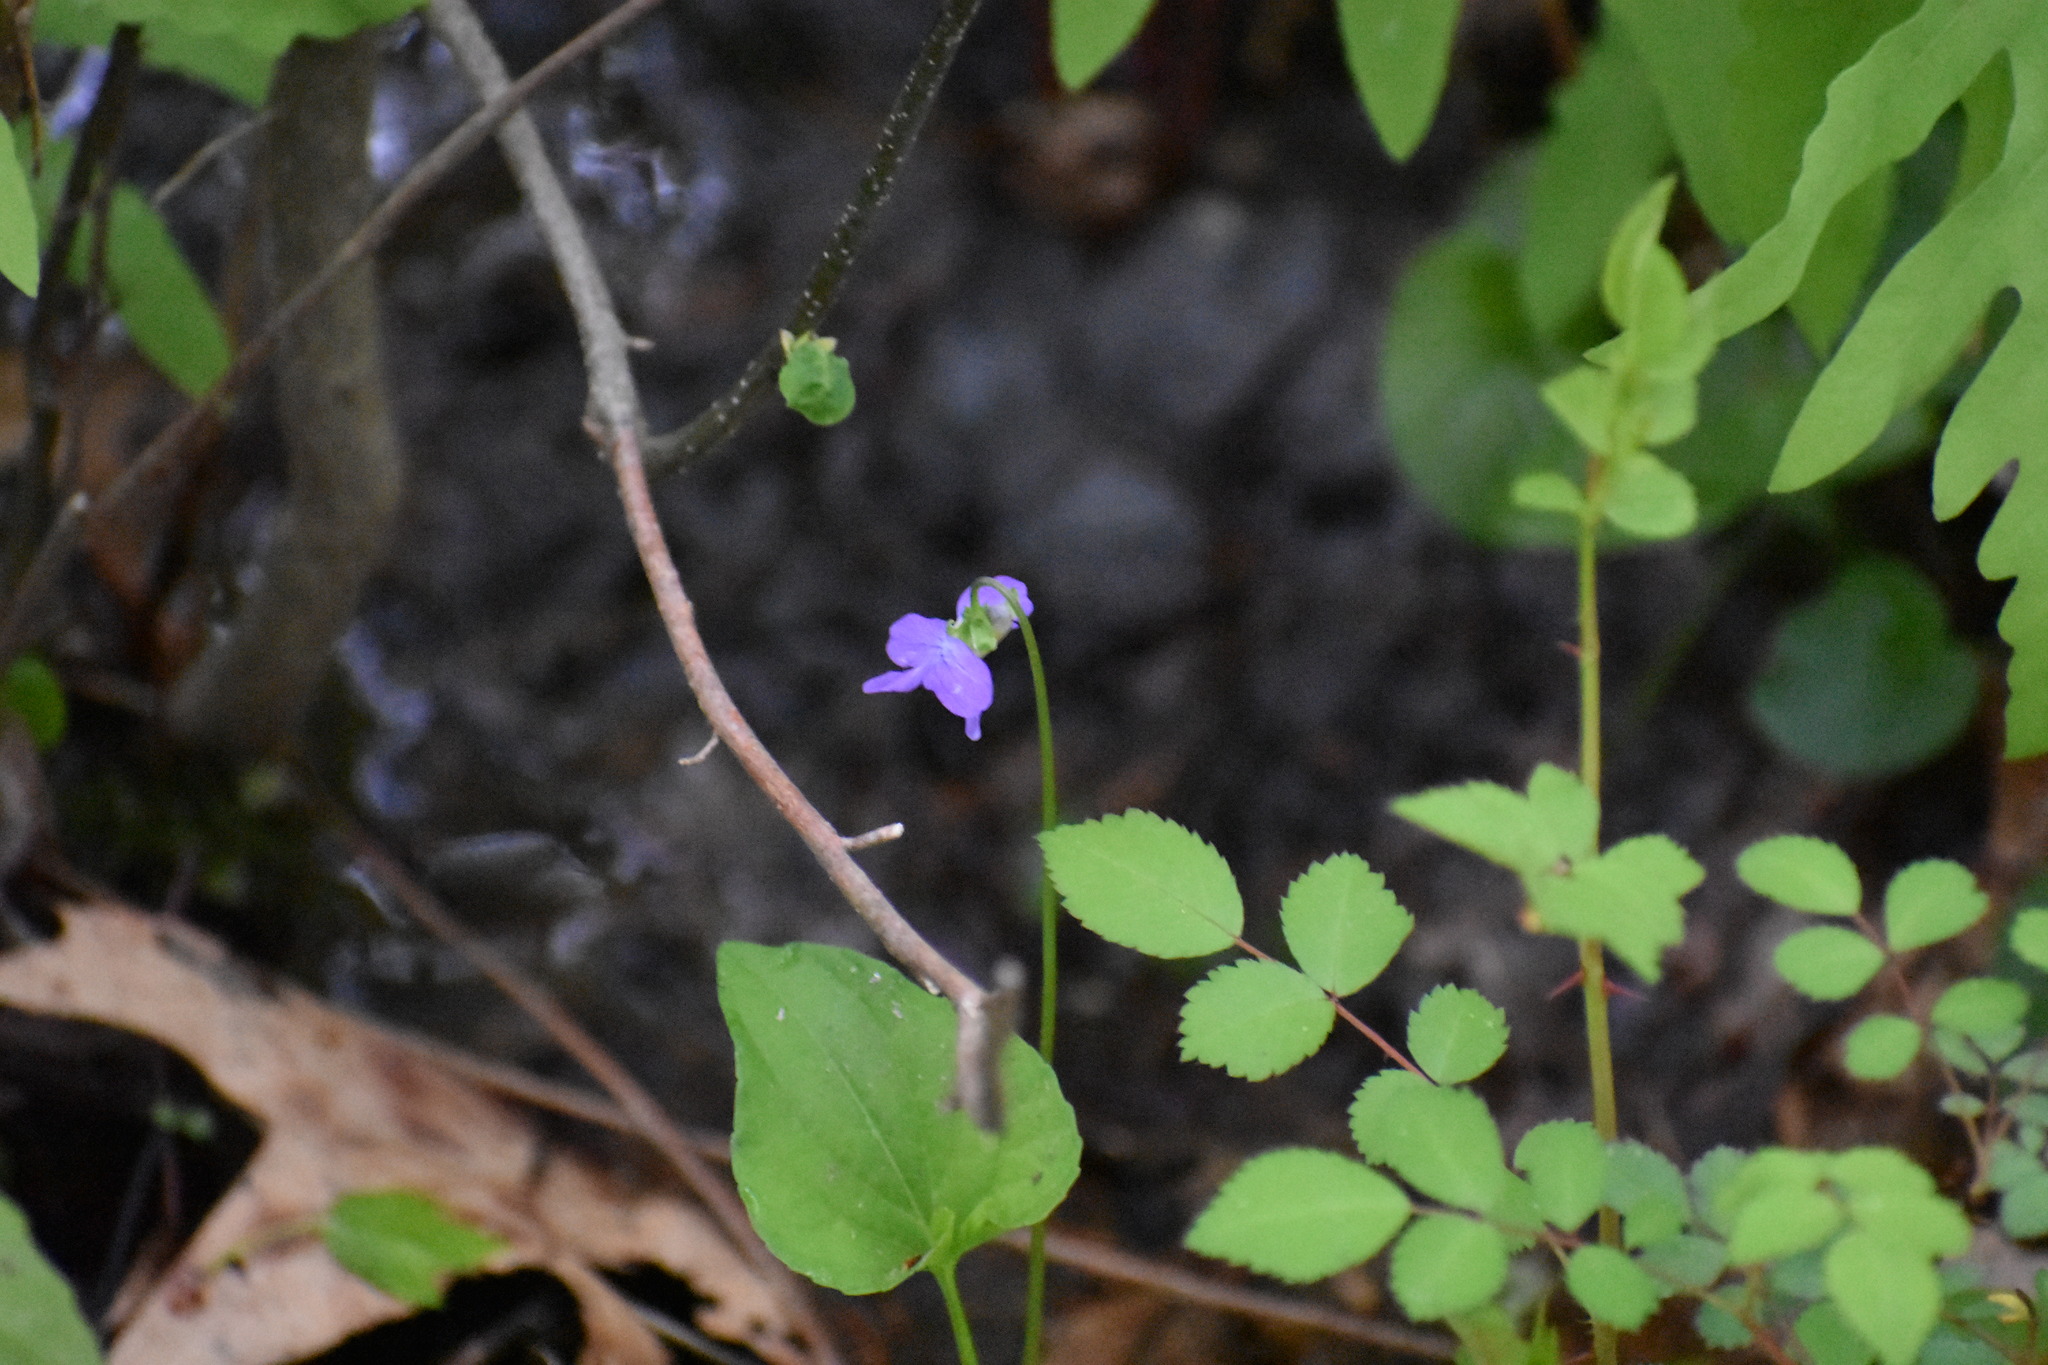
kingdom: Plantae
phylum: Tracheophyta
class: Magnoliopsida
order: Malpighiales
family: Violaceae
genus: Viola
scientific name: Viola sororia
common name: Dooryard violet
